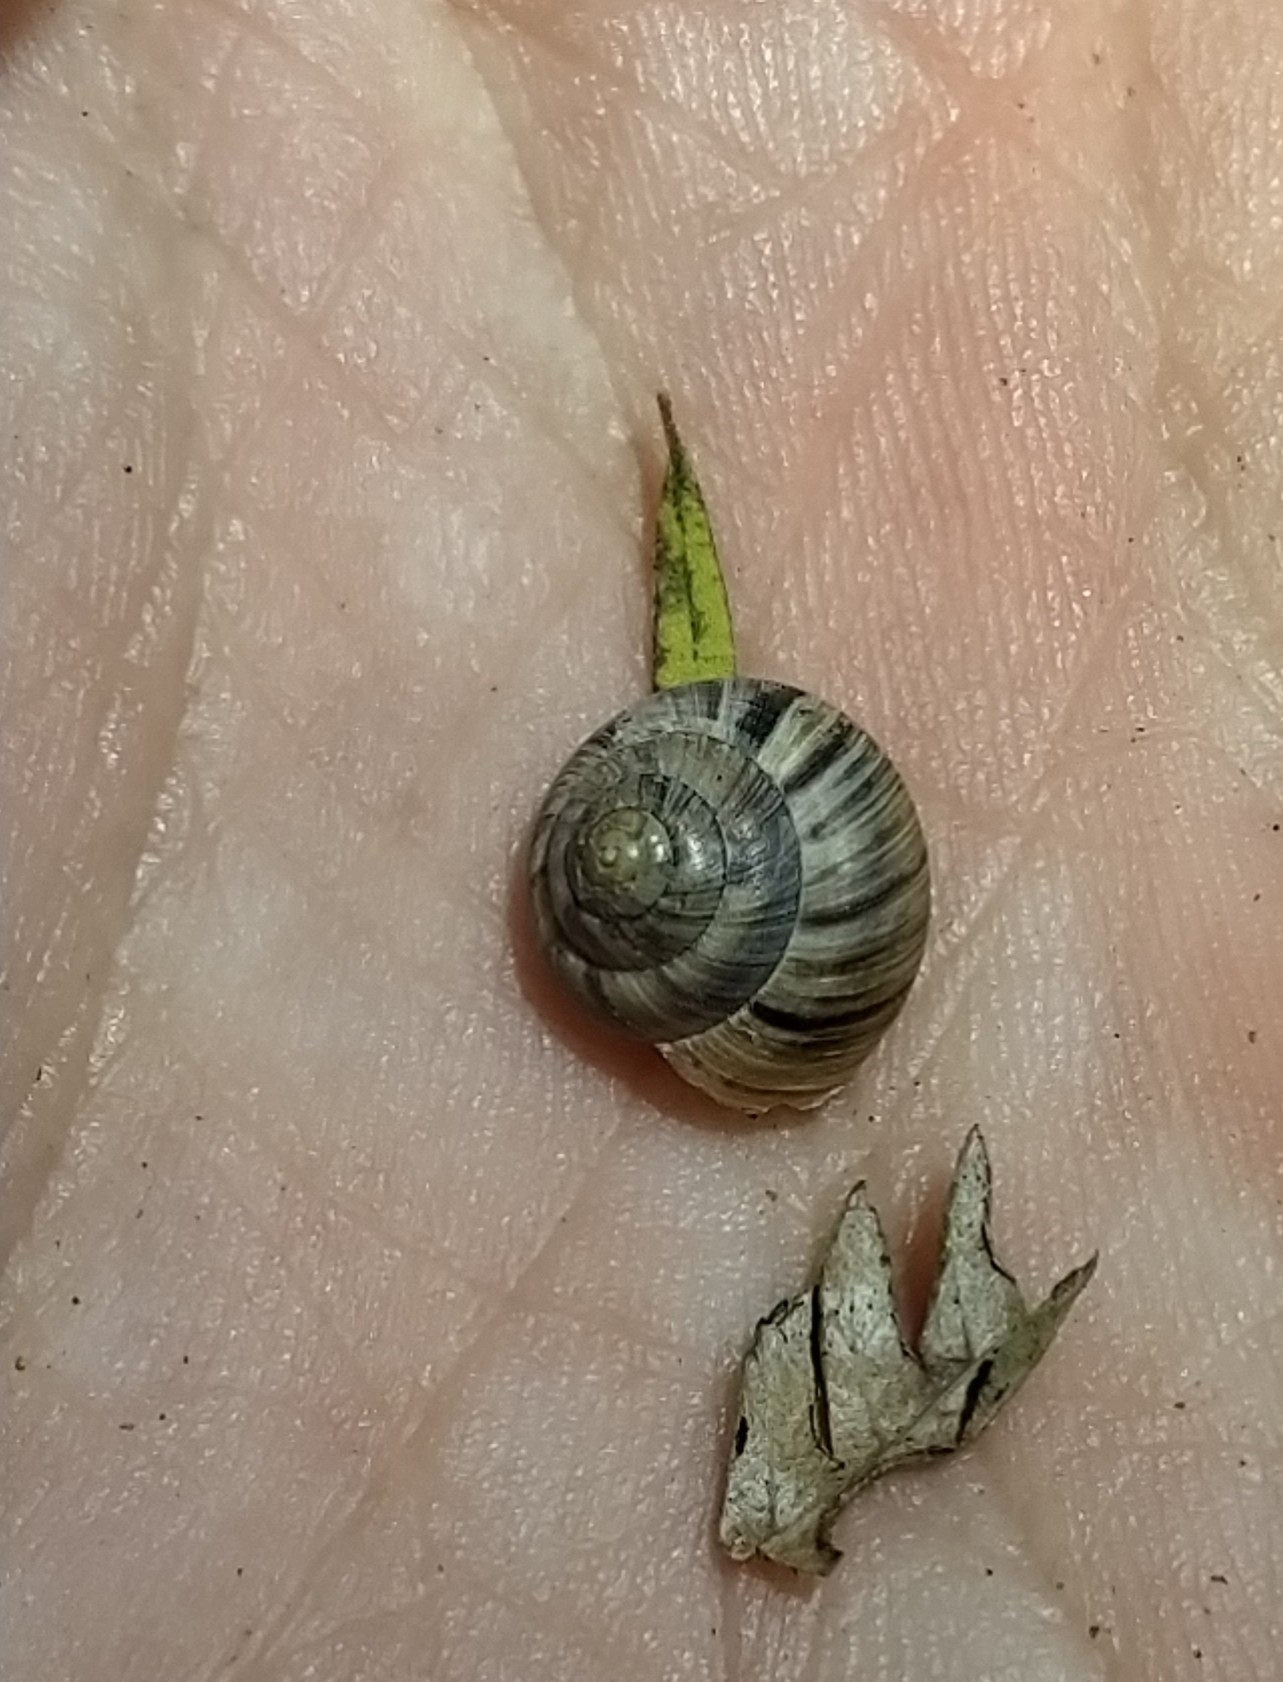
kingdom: Animalia
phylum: Mollusca
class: Gastropoda
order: Stylommatophora
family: Charopidae
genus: Serpho
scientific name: Serpho
